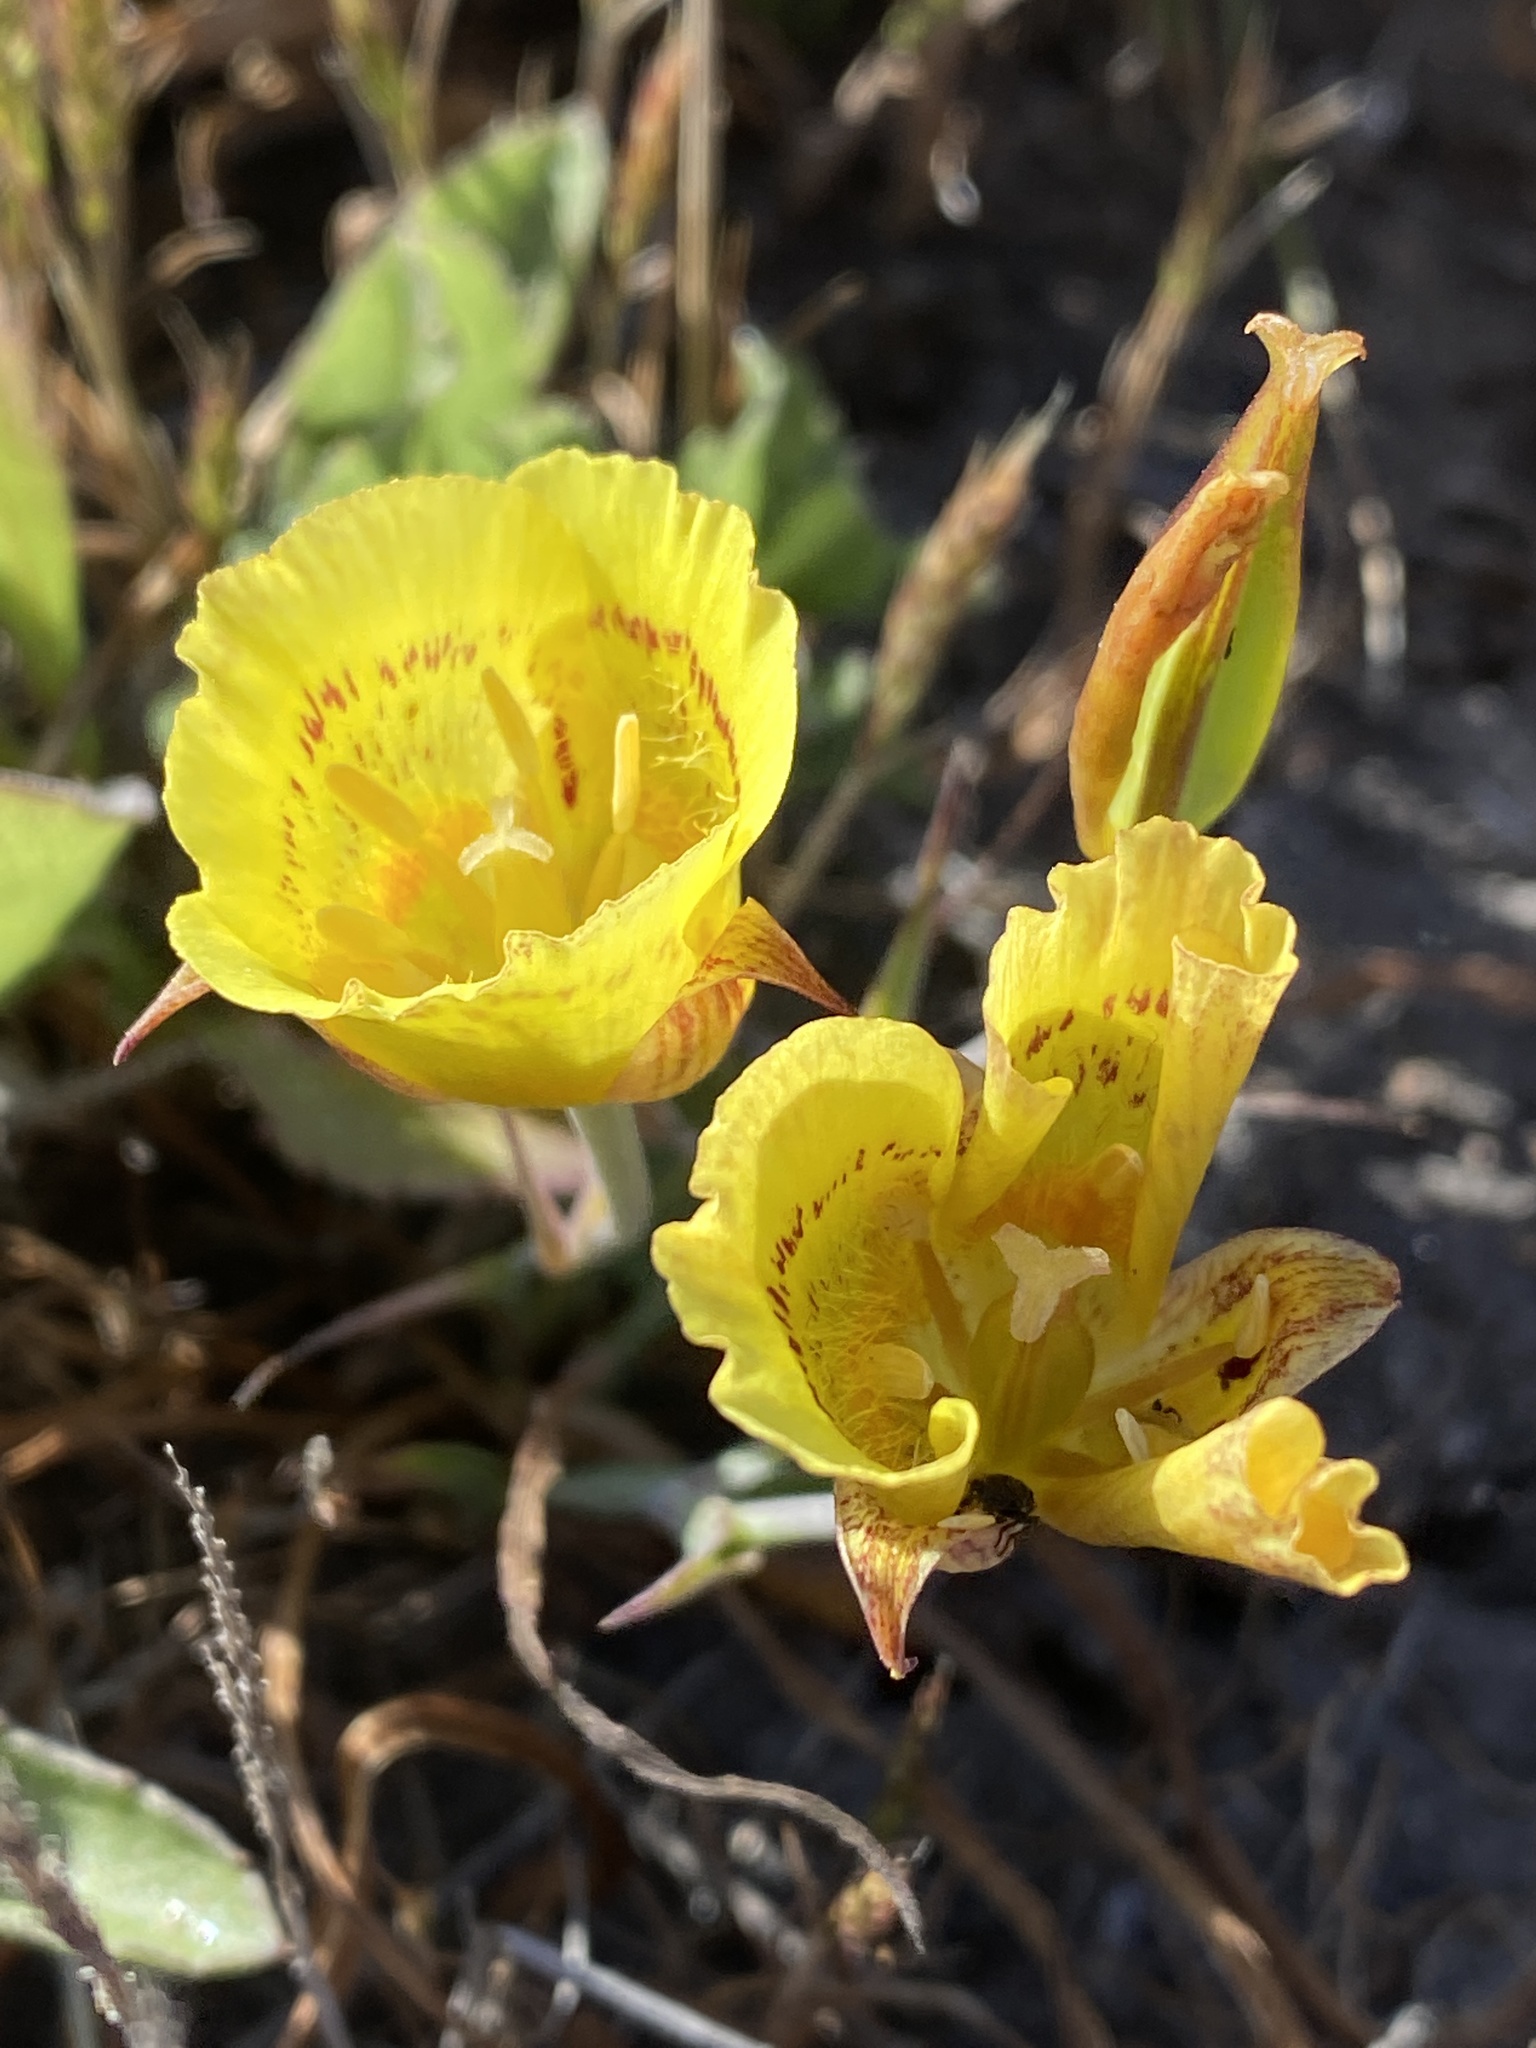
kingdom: Plantae
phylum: Tracheophyta
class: Liliopsida
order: Liliales
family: Liliaceae
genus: Calochortus
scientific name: Calochortus luteus
